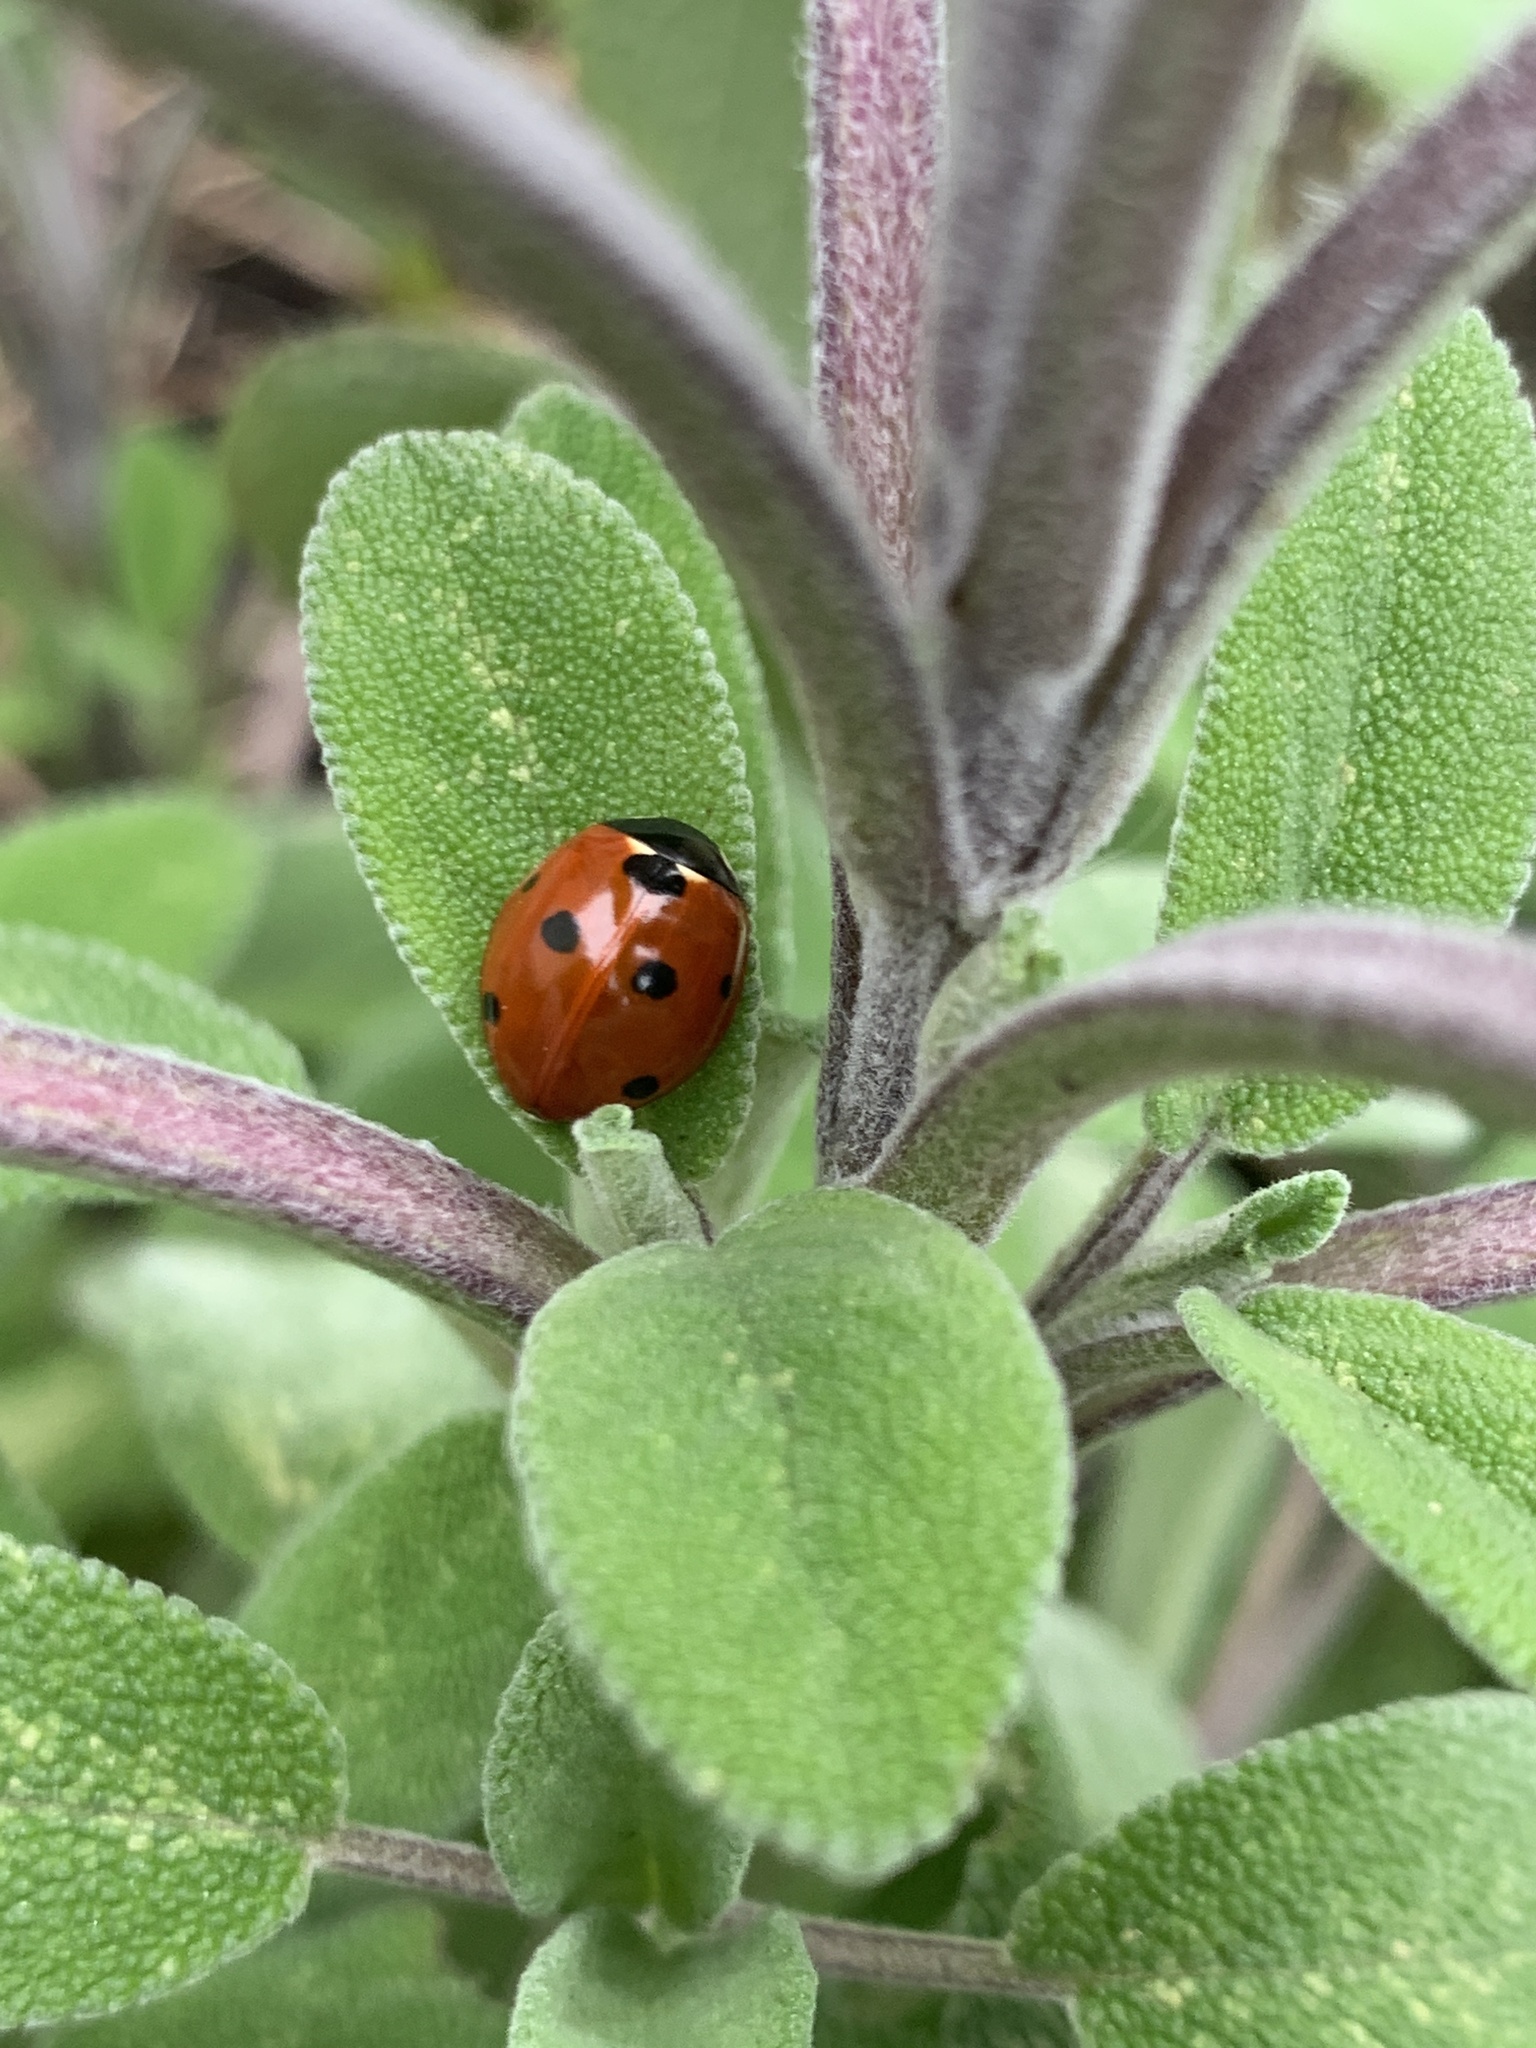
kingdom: Animalia
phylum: Arthropoda
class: Insecta
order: Coleoptera
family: Coccinellidae
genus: Coccinella
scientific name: Coccinella septempunctata
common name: Sevenspotted lady beetle
